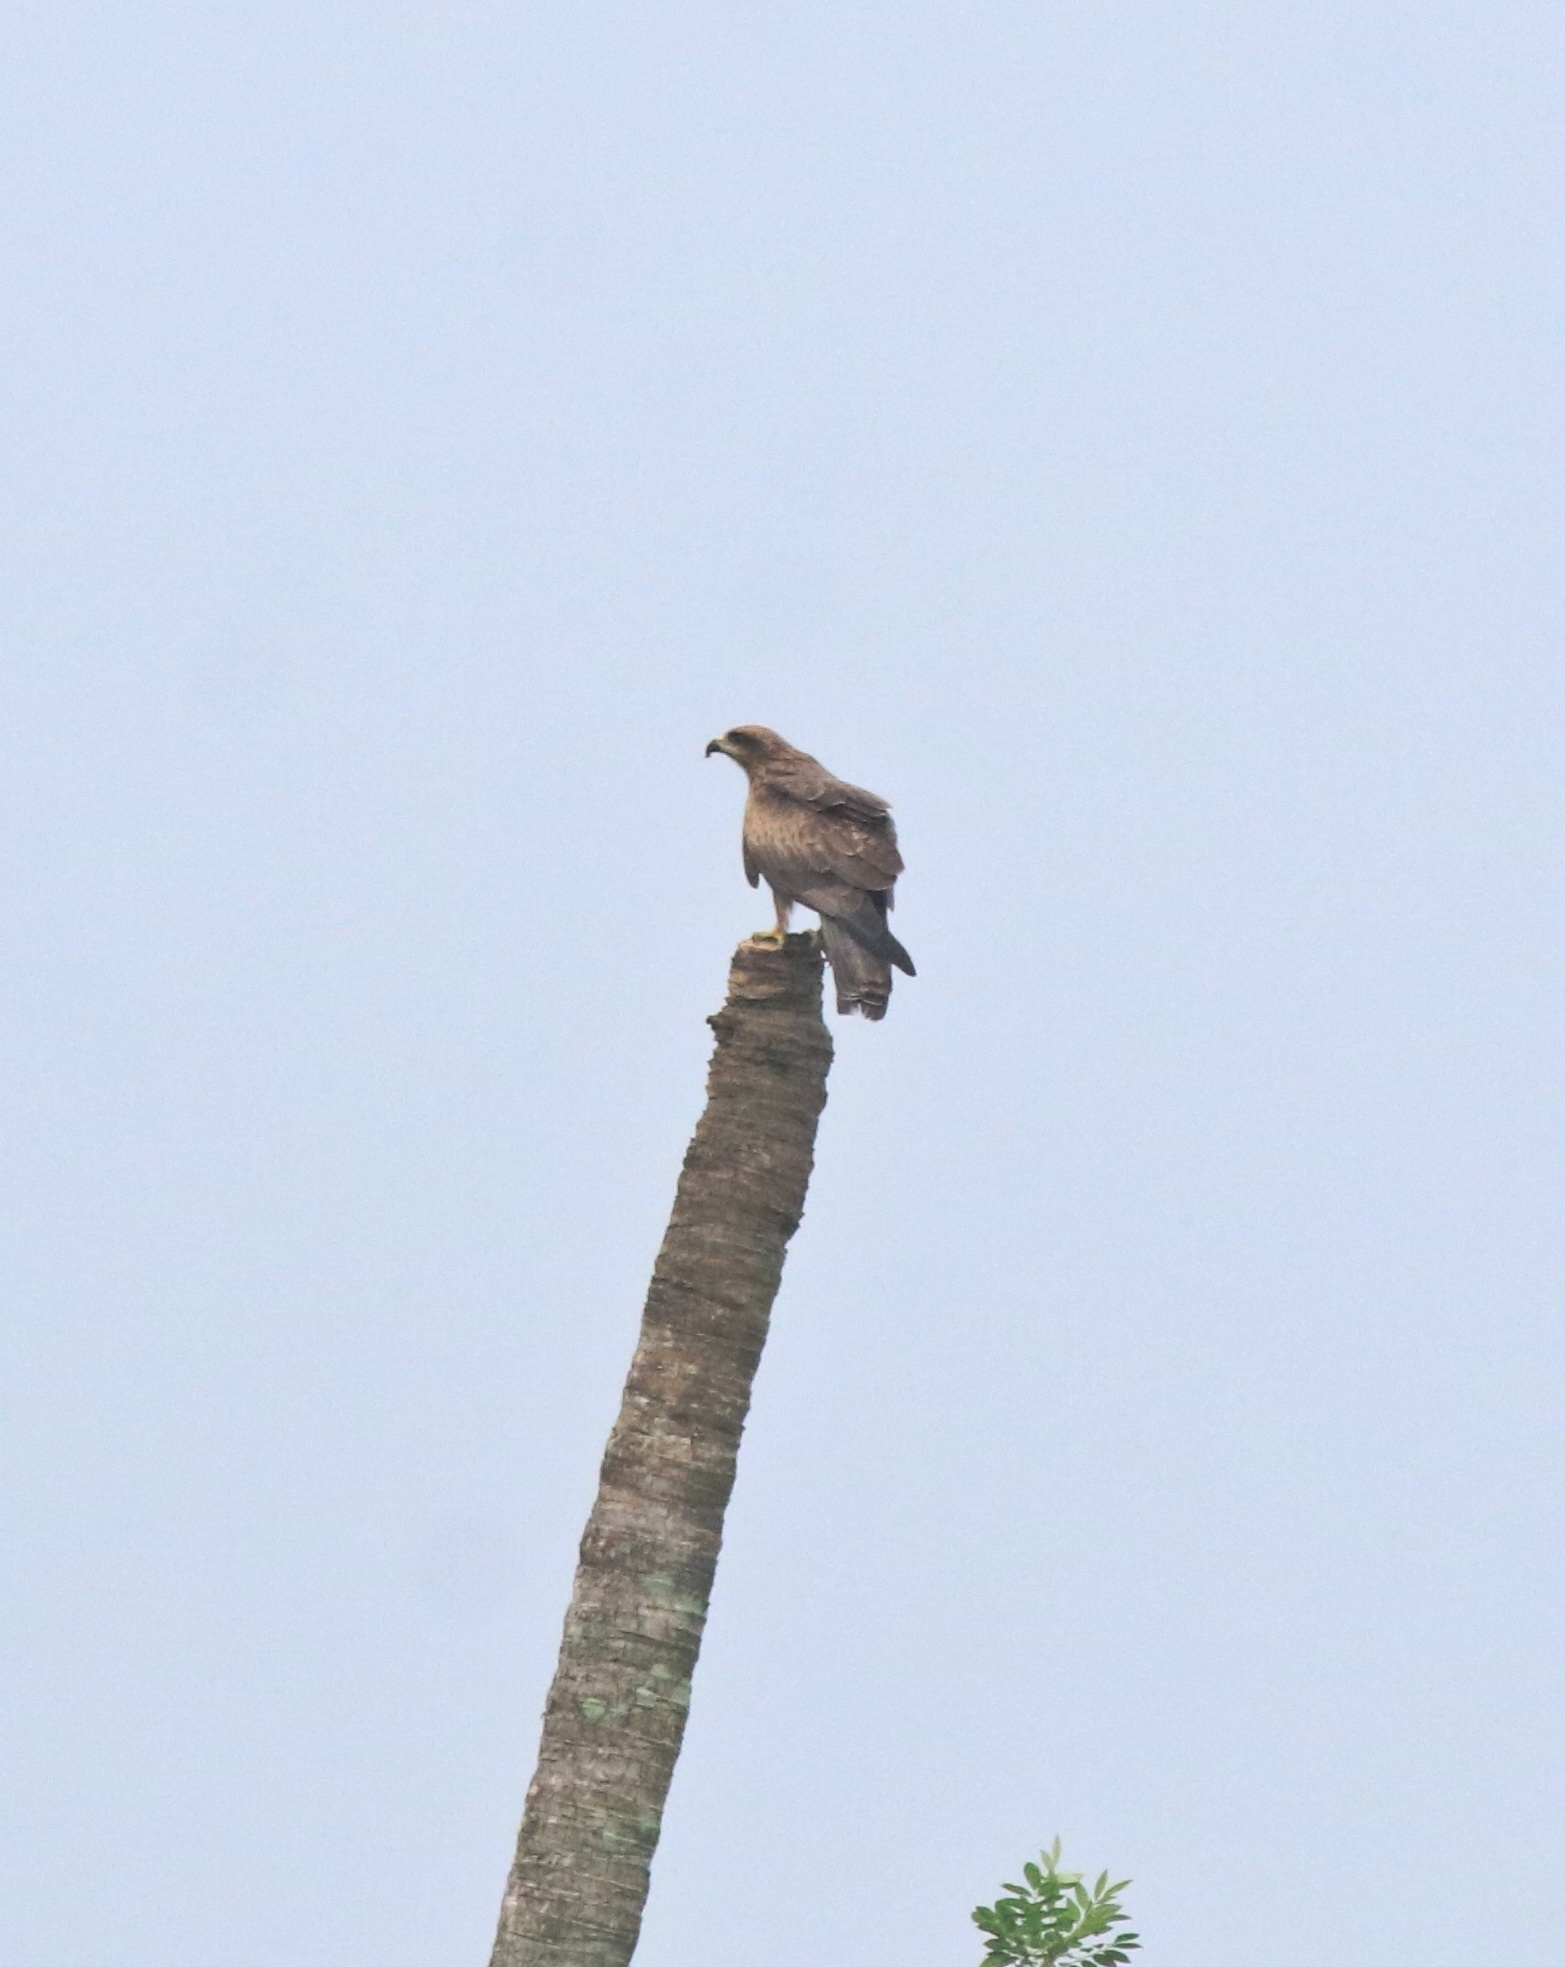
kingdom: Animalia
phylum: Chordata
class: Aves
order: Accipitriformes
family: Accipitridae
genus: Milvus
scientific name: Milvus migrans
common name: Black kite
